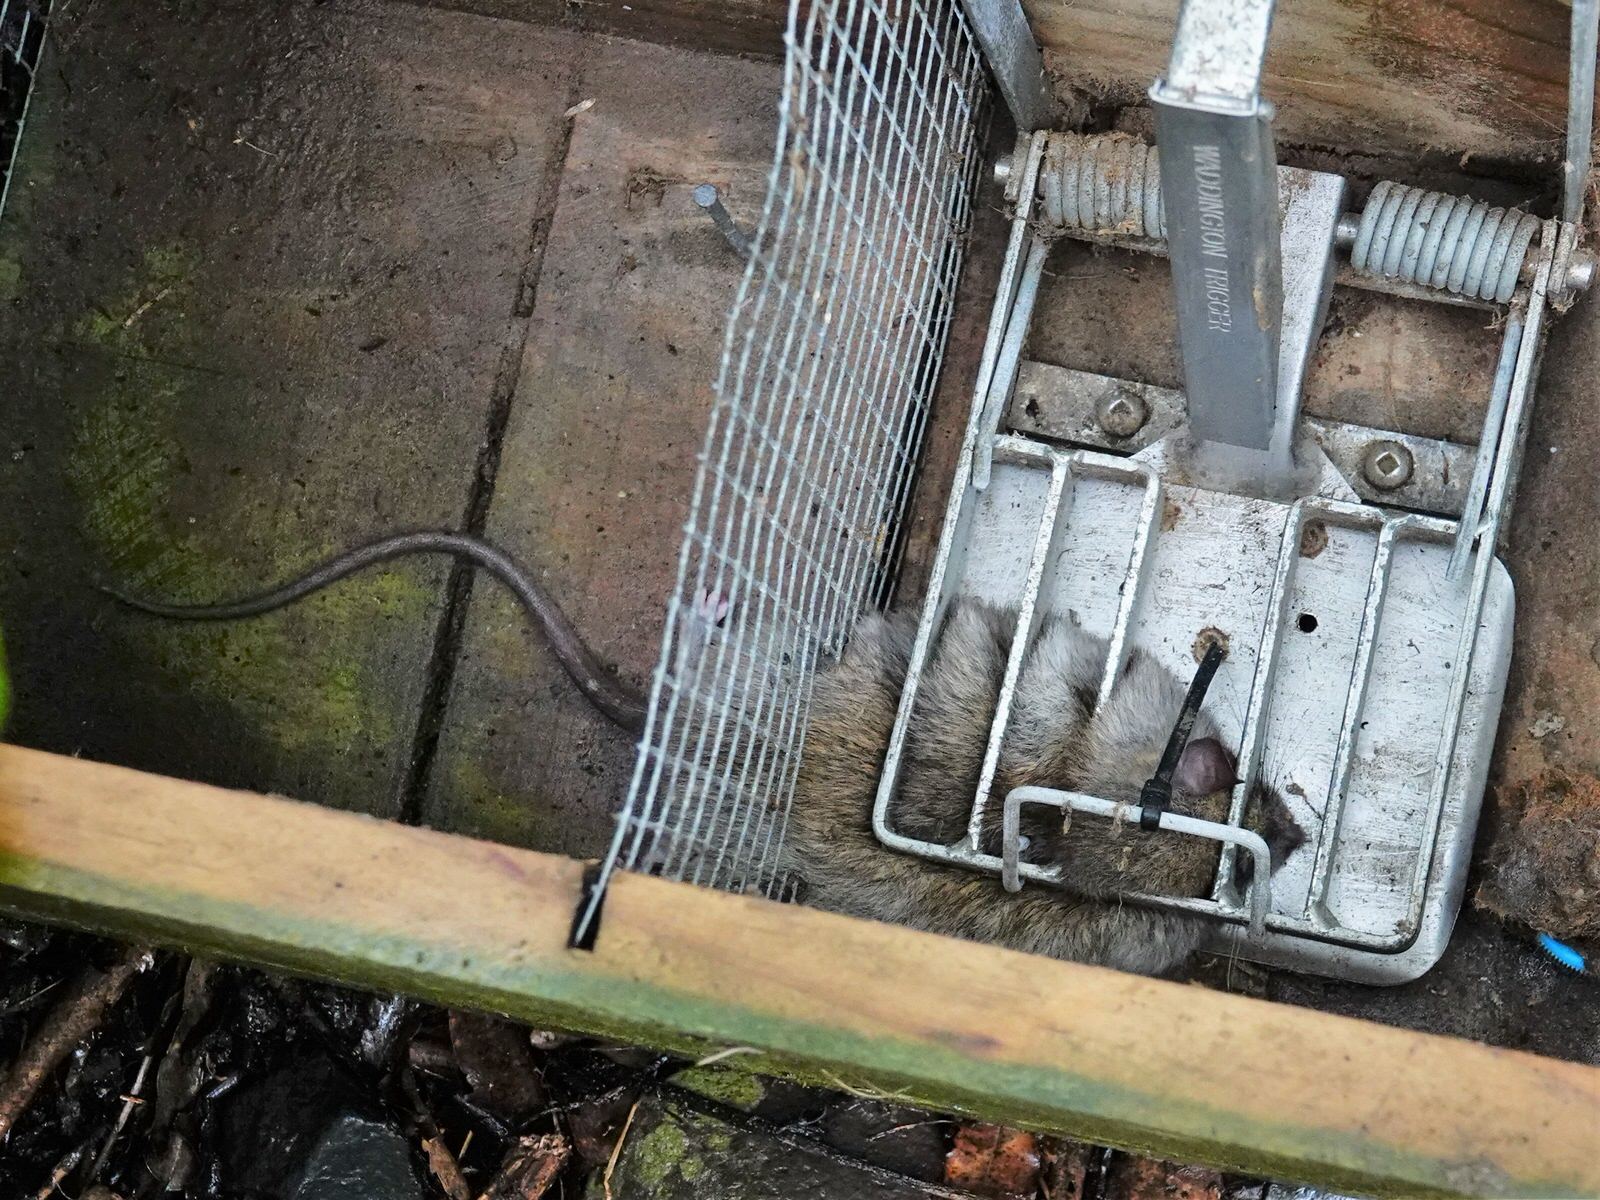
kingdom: Animalia
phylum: Chordata
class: Mammalia
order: Rodentia
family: Muridae
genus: Rattus
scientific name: Rattus rattus
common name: Black rat
